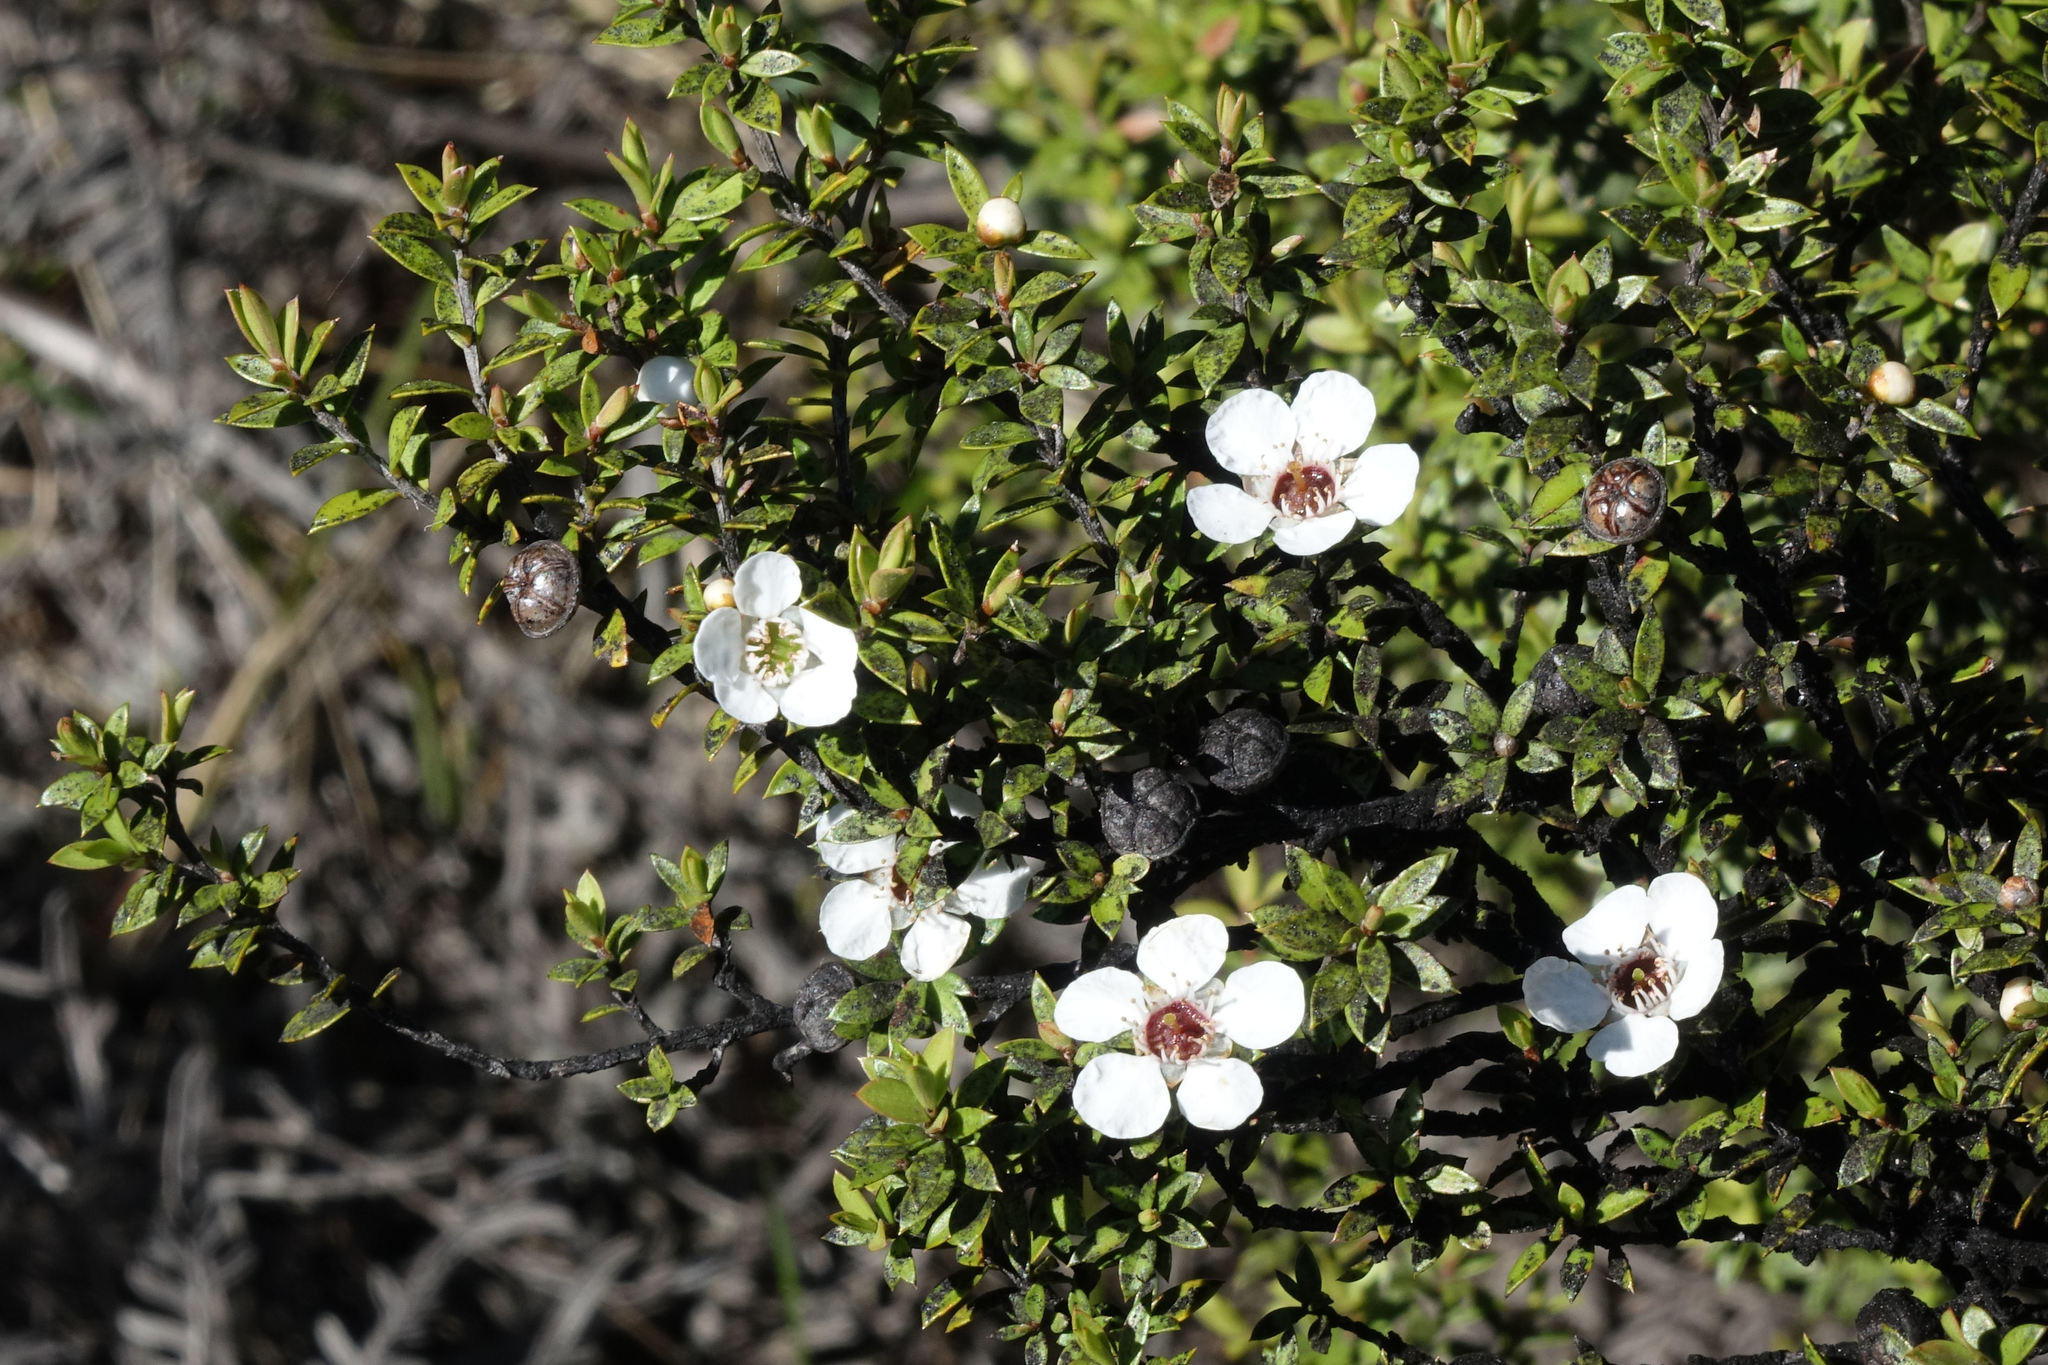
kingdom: Plantae
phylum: Tracheophyta
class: Magnoliopsida
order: Myrtales
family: Myrtaceae
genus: Leptospermum
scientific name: Leptospermum scoparium
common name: Broom tea-tree
